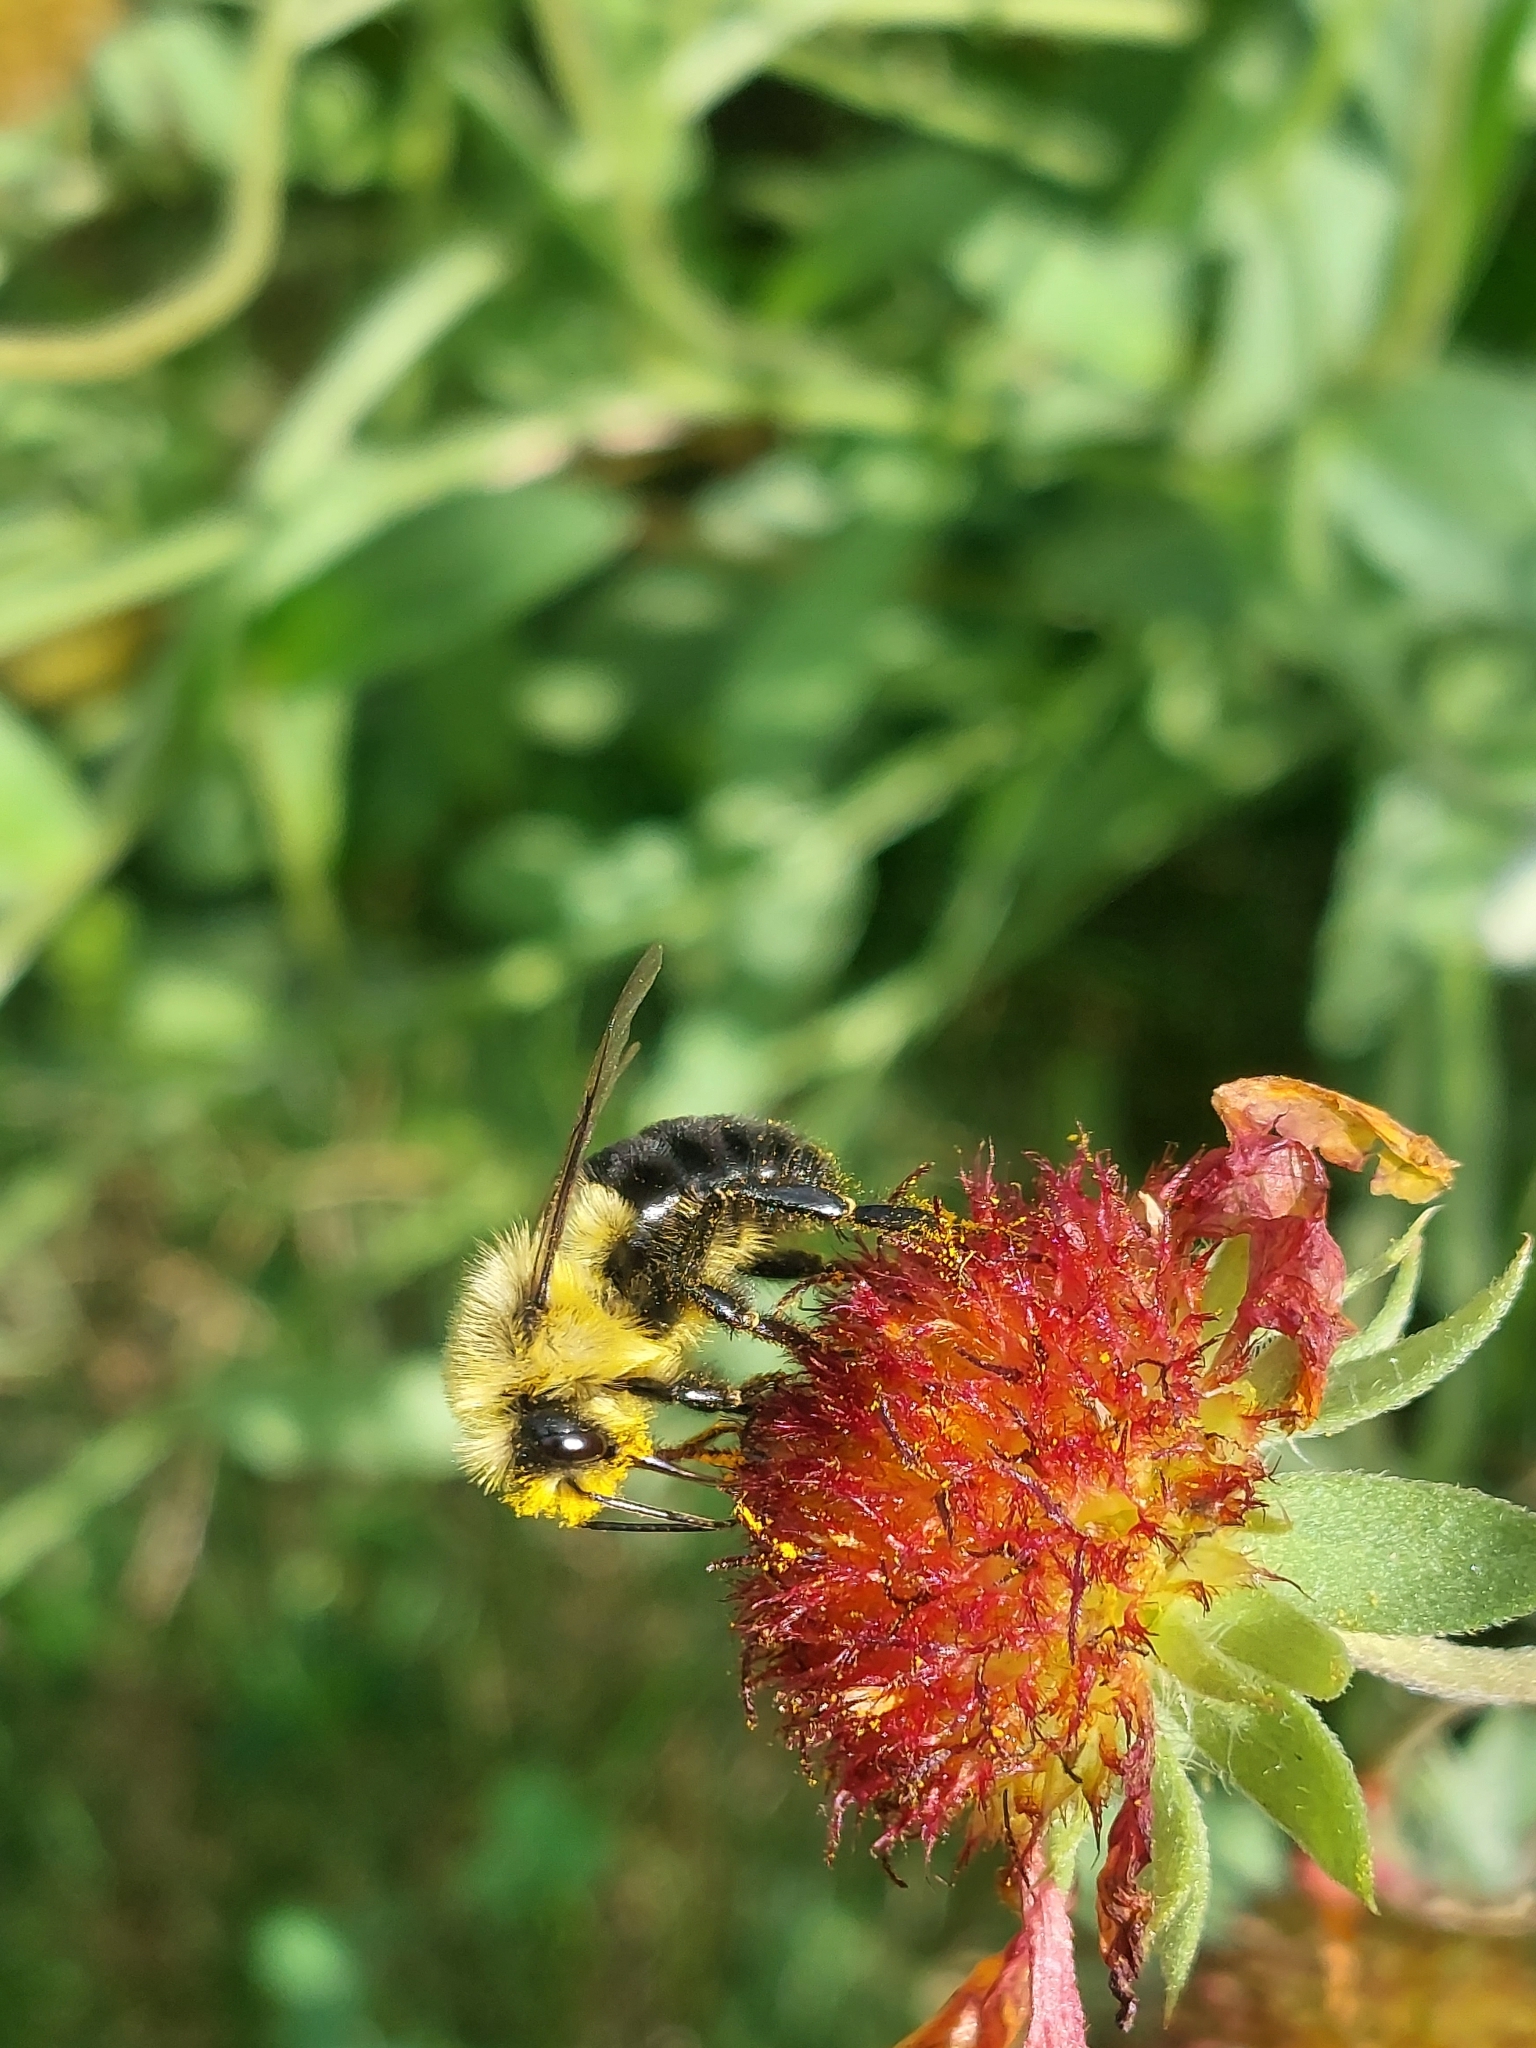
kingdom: Animalia
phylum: Arthropoda
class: Insecta
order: Hymenoptera
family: Apidae
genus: Bombus
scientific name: Bombus impatiens
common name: Common eastern bumble bee
